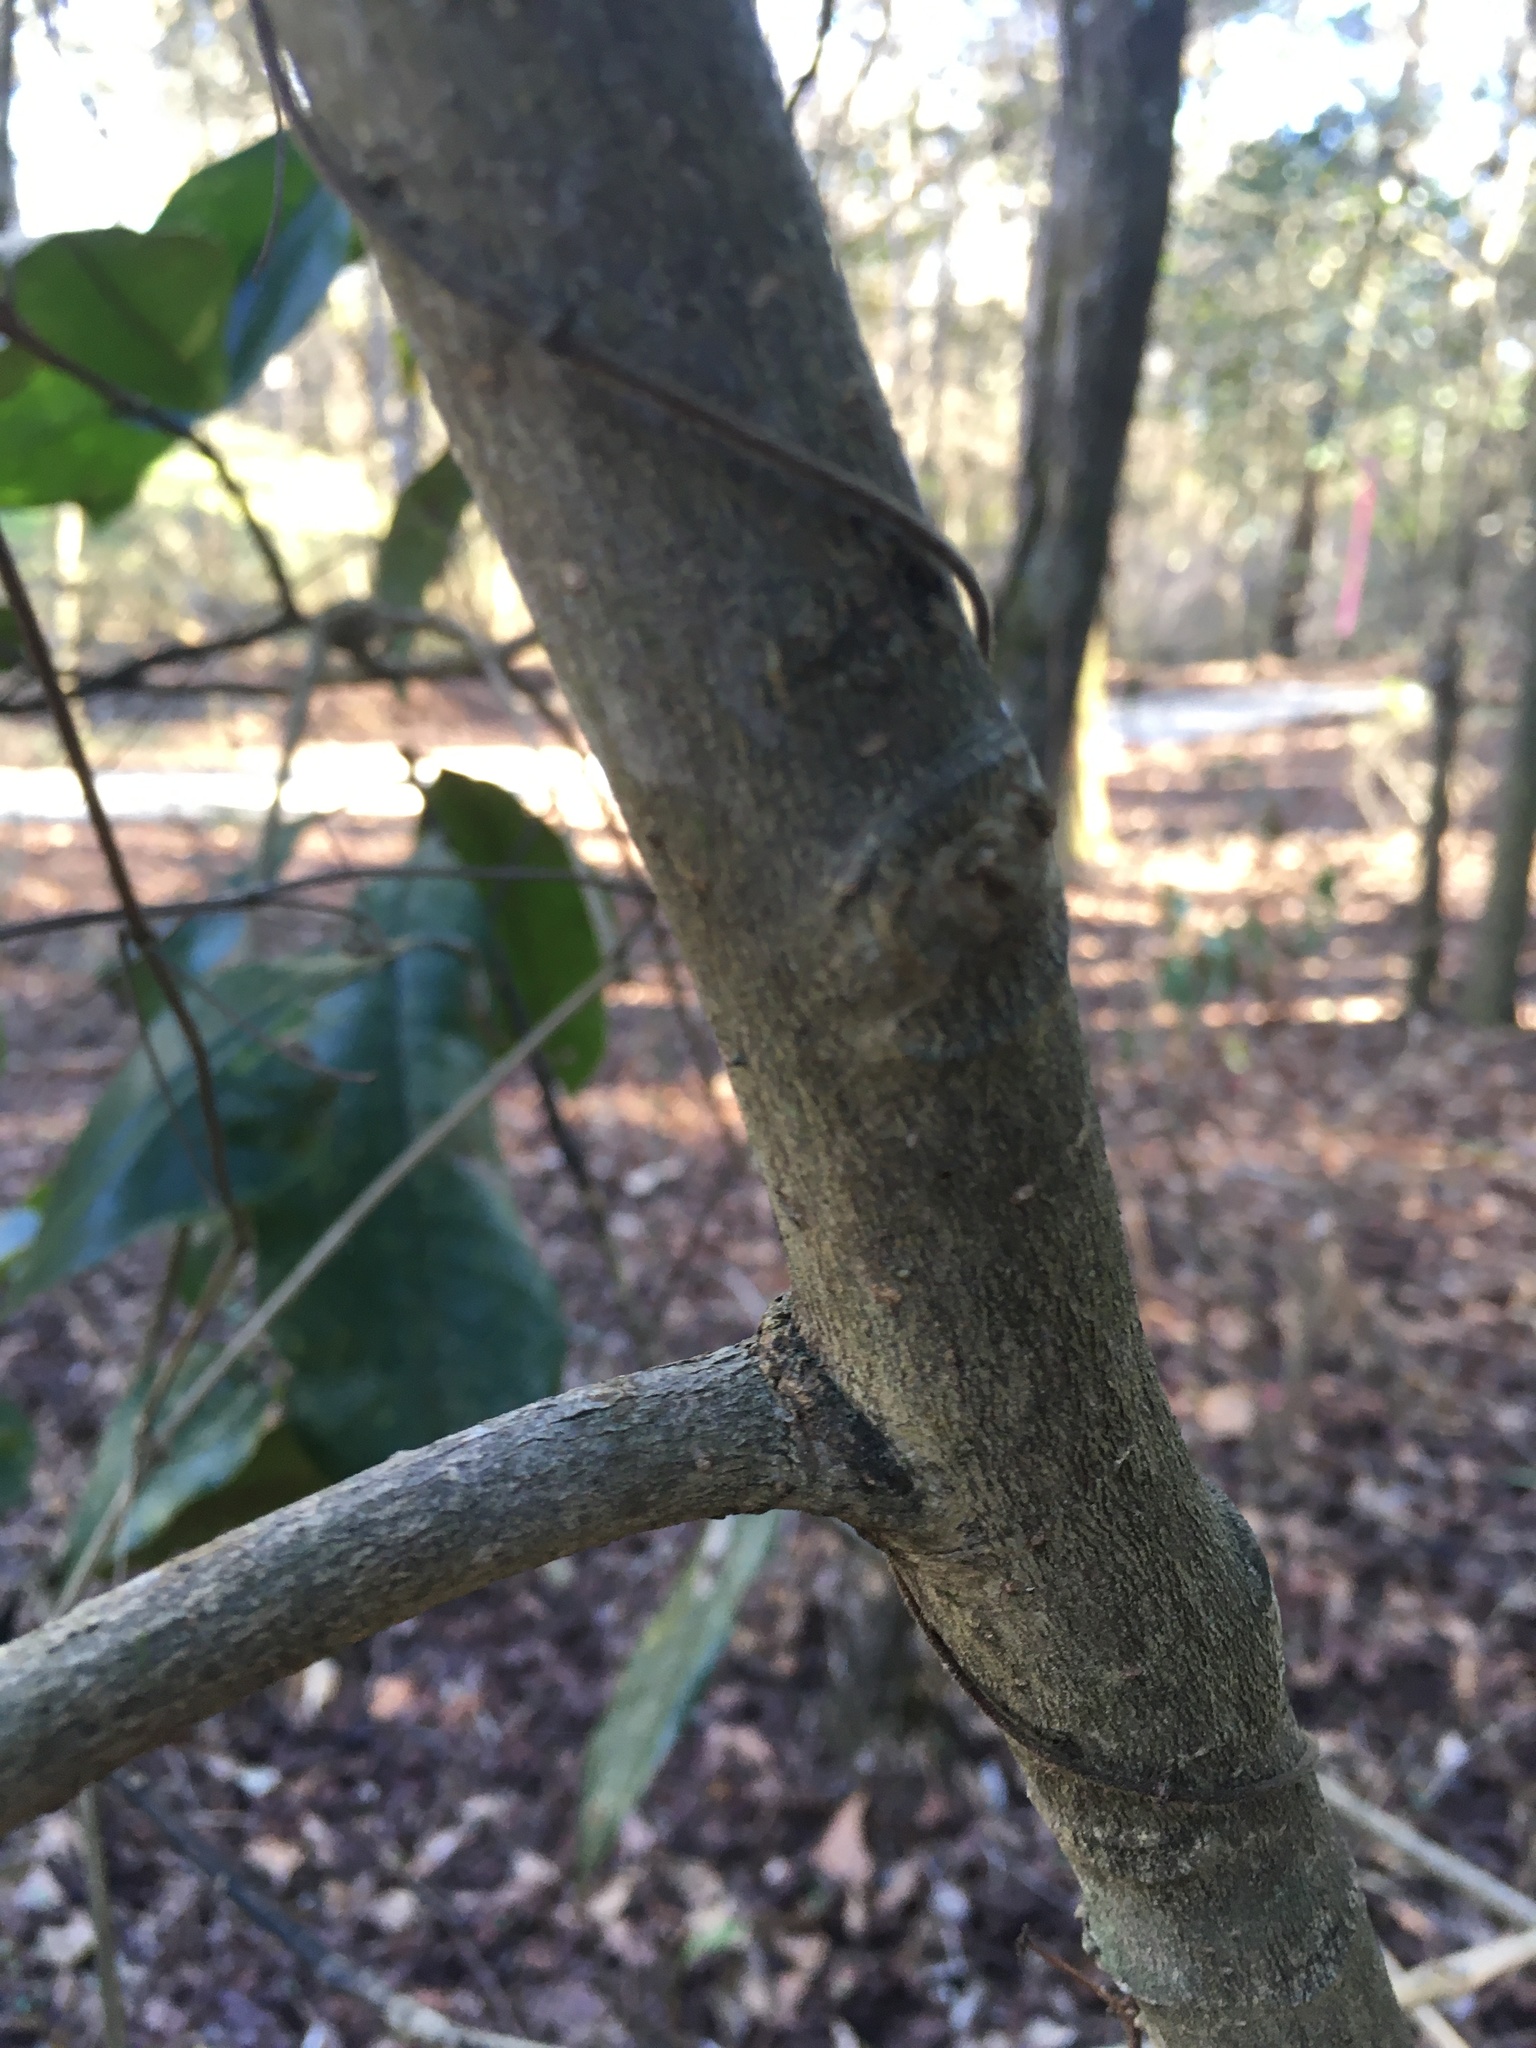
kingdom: Plantae
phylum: Tracheophyta
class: Magnoliopsida
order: Magnoliales
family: Magnoliaceae
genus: Magnolia
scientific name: Magnolia grandiflora
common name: Southern magnolia
